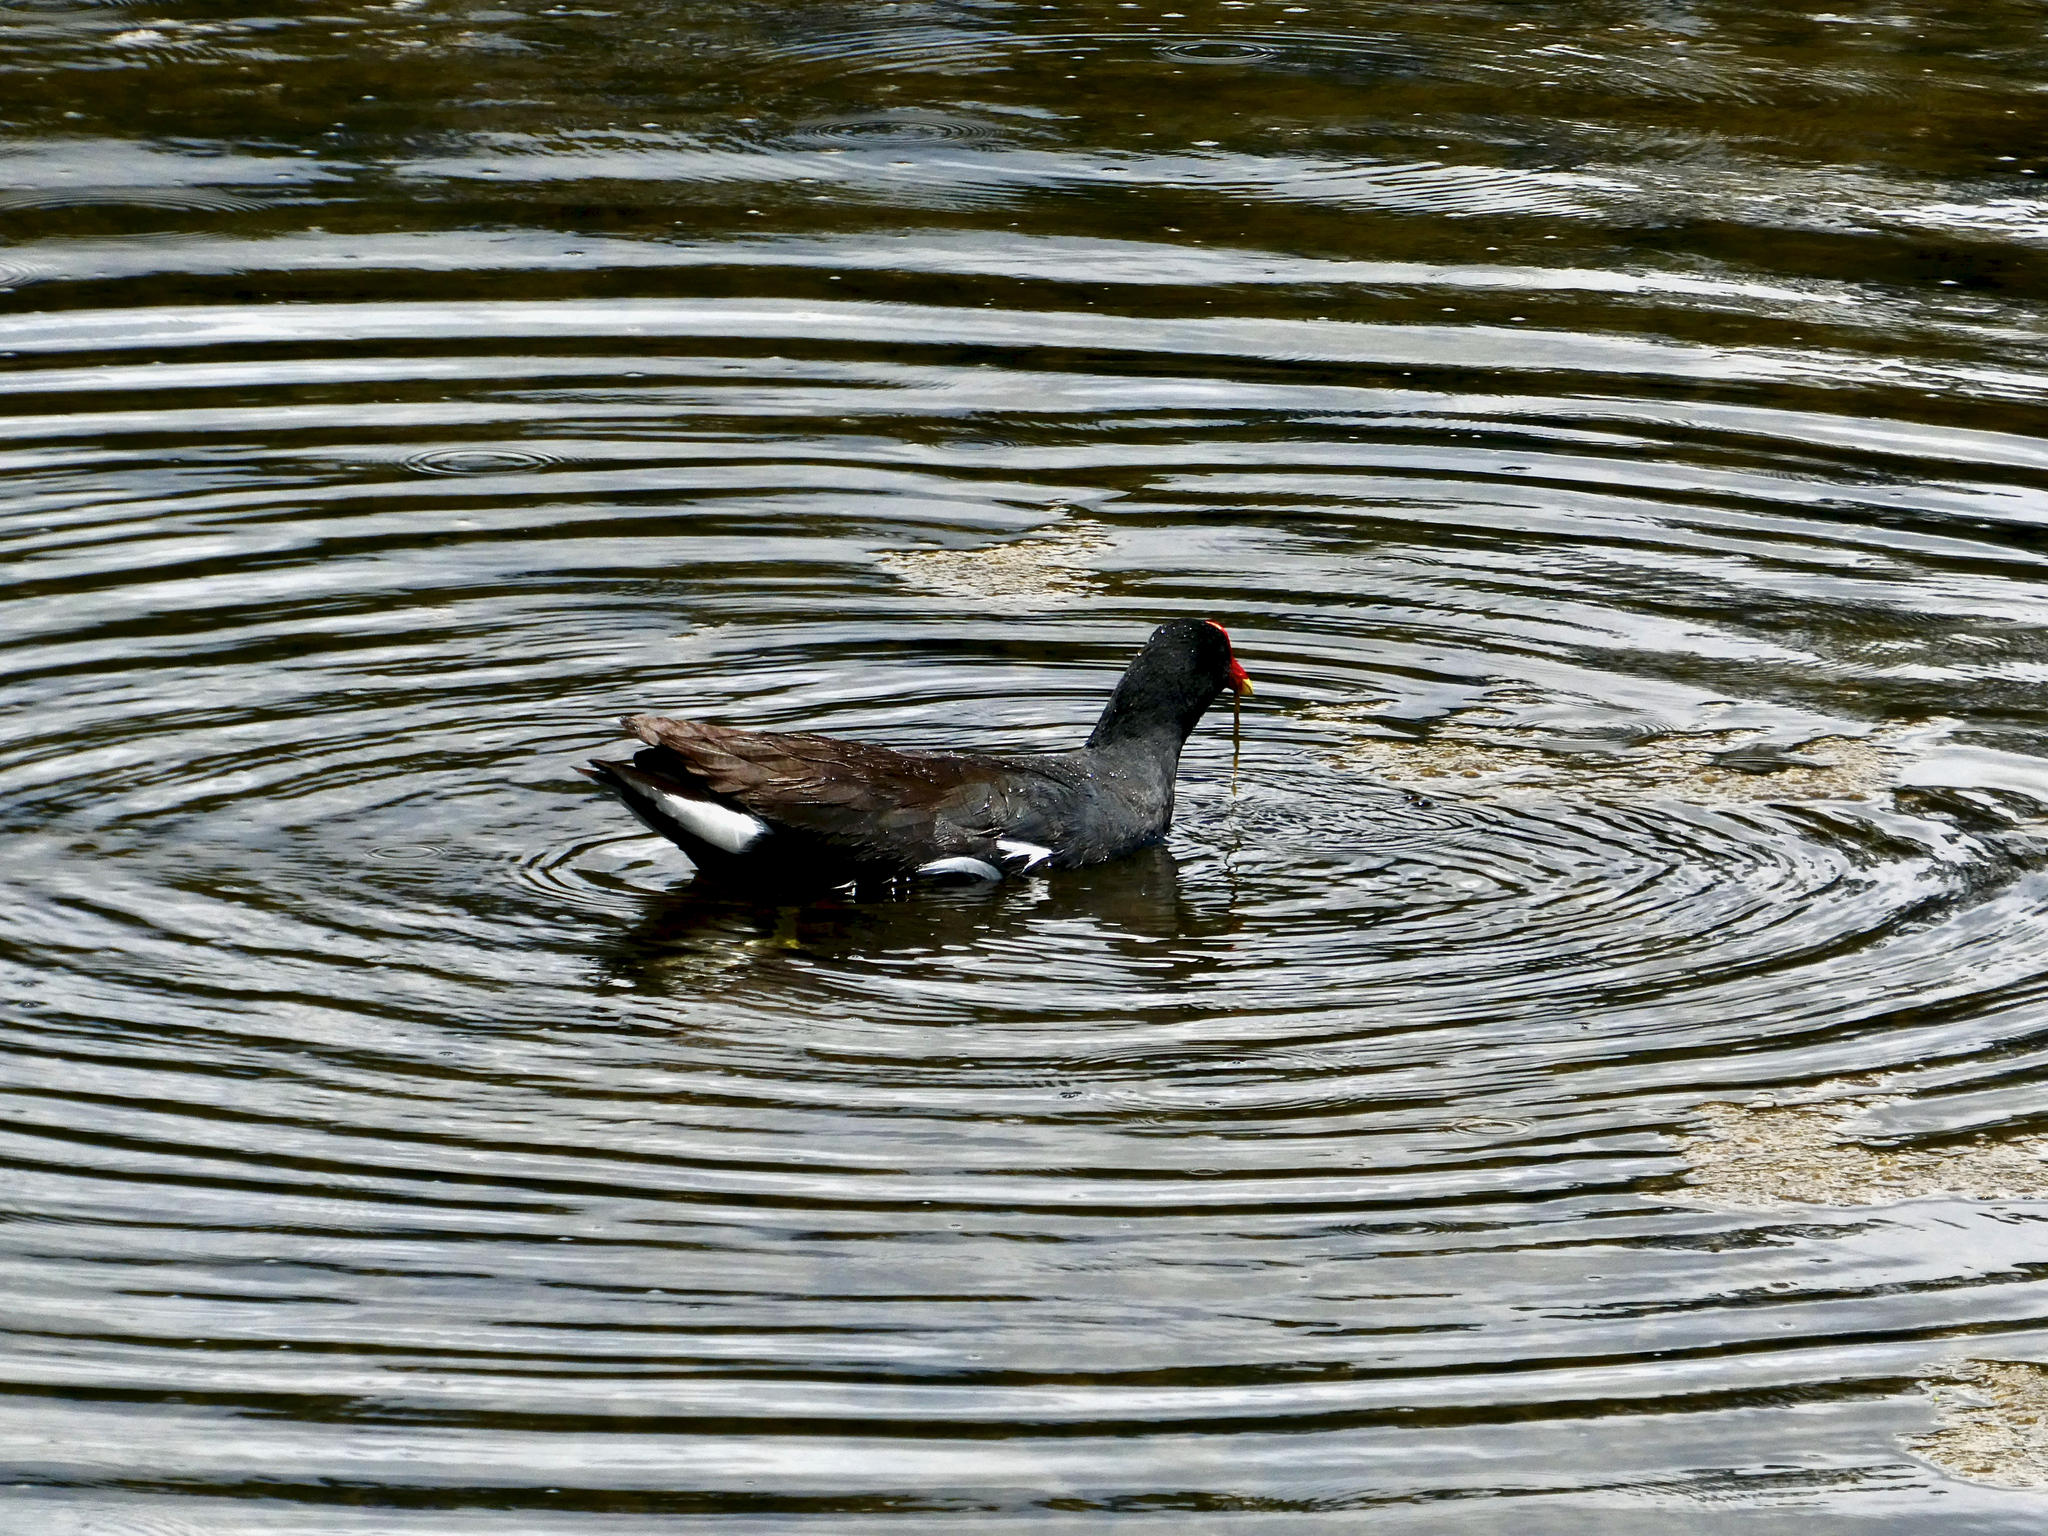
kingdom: Animalia
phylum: Chordata
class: Aves
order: Gruiformes
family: Rallidae
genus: Gallinula
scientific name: Gallinula chloropus
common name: Common moorhen
